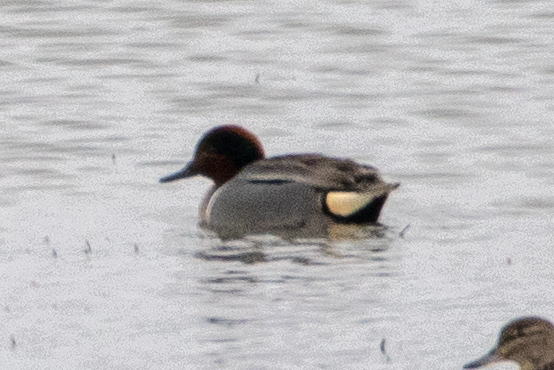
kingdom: Animalia
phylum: Chordata
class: Aves
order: Anseriformes
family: Anatidae
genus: Anas
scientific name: Anas crecca
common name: Eurasian teal
